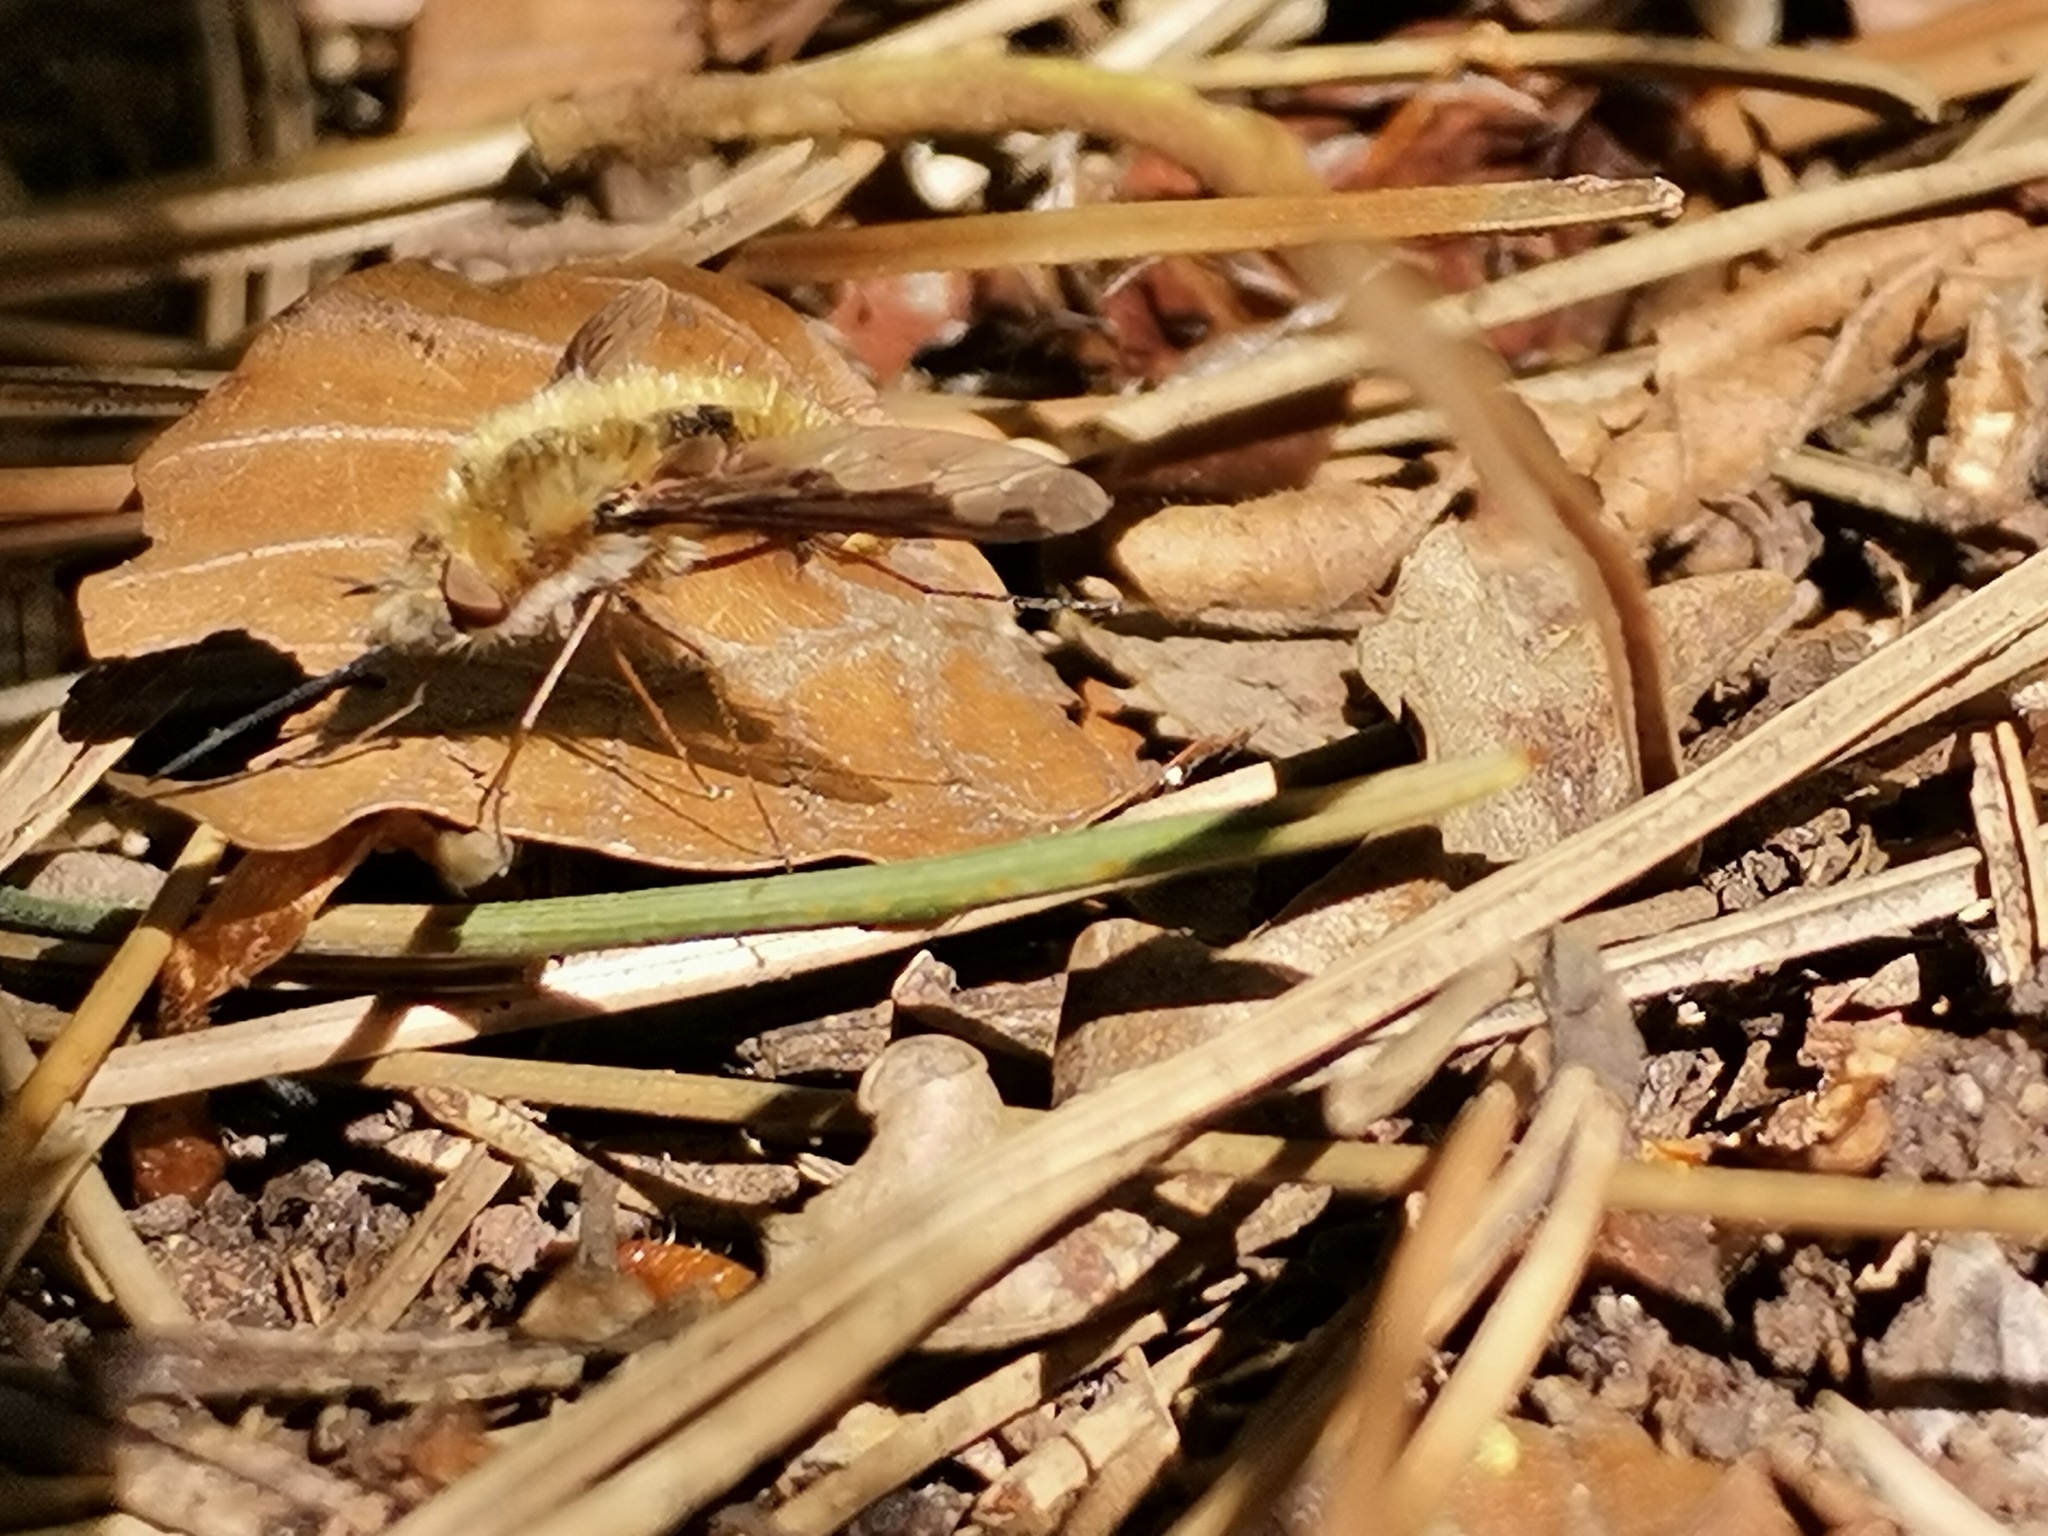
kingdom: Animalia
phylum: Arthropoda
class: Insecta
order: Diptera
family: Bombyliidae
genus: Bombylius
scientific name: Bombylius major
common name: Bee fly
